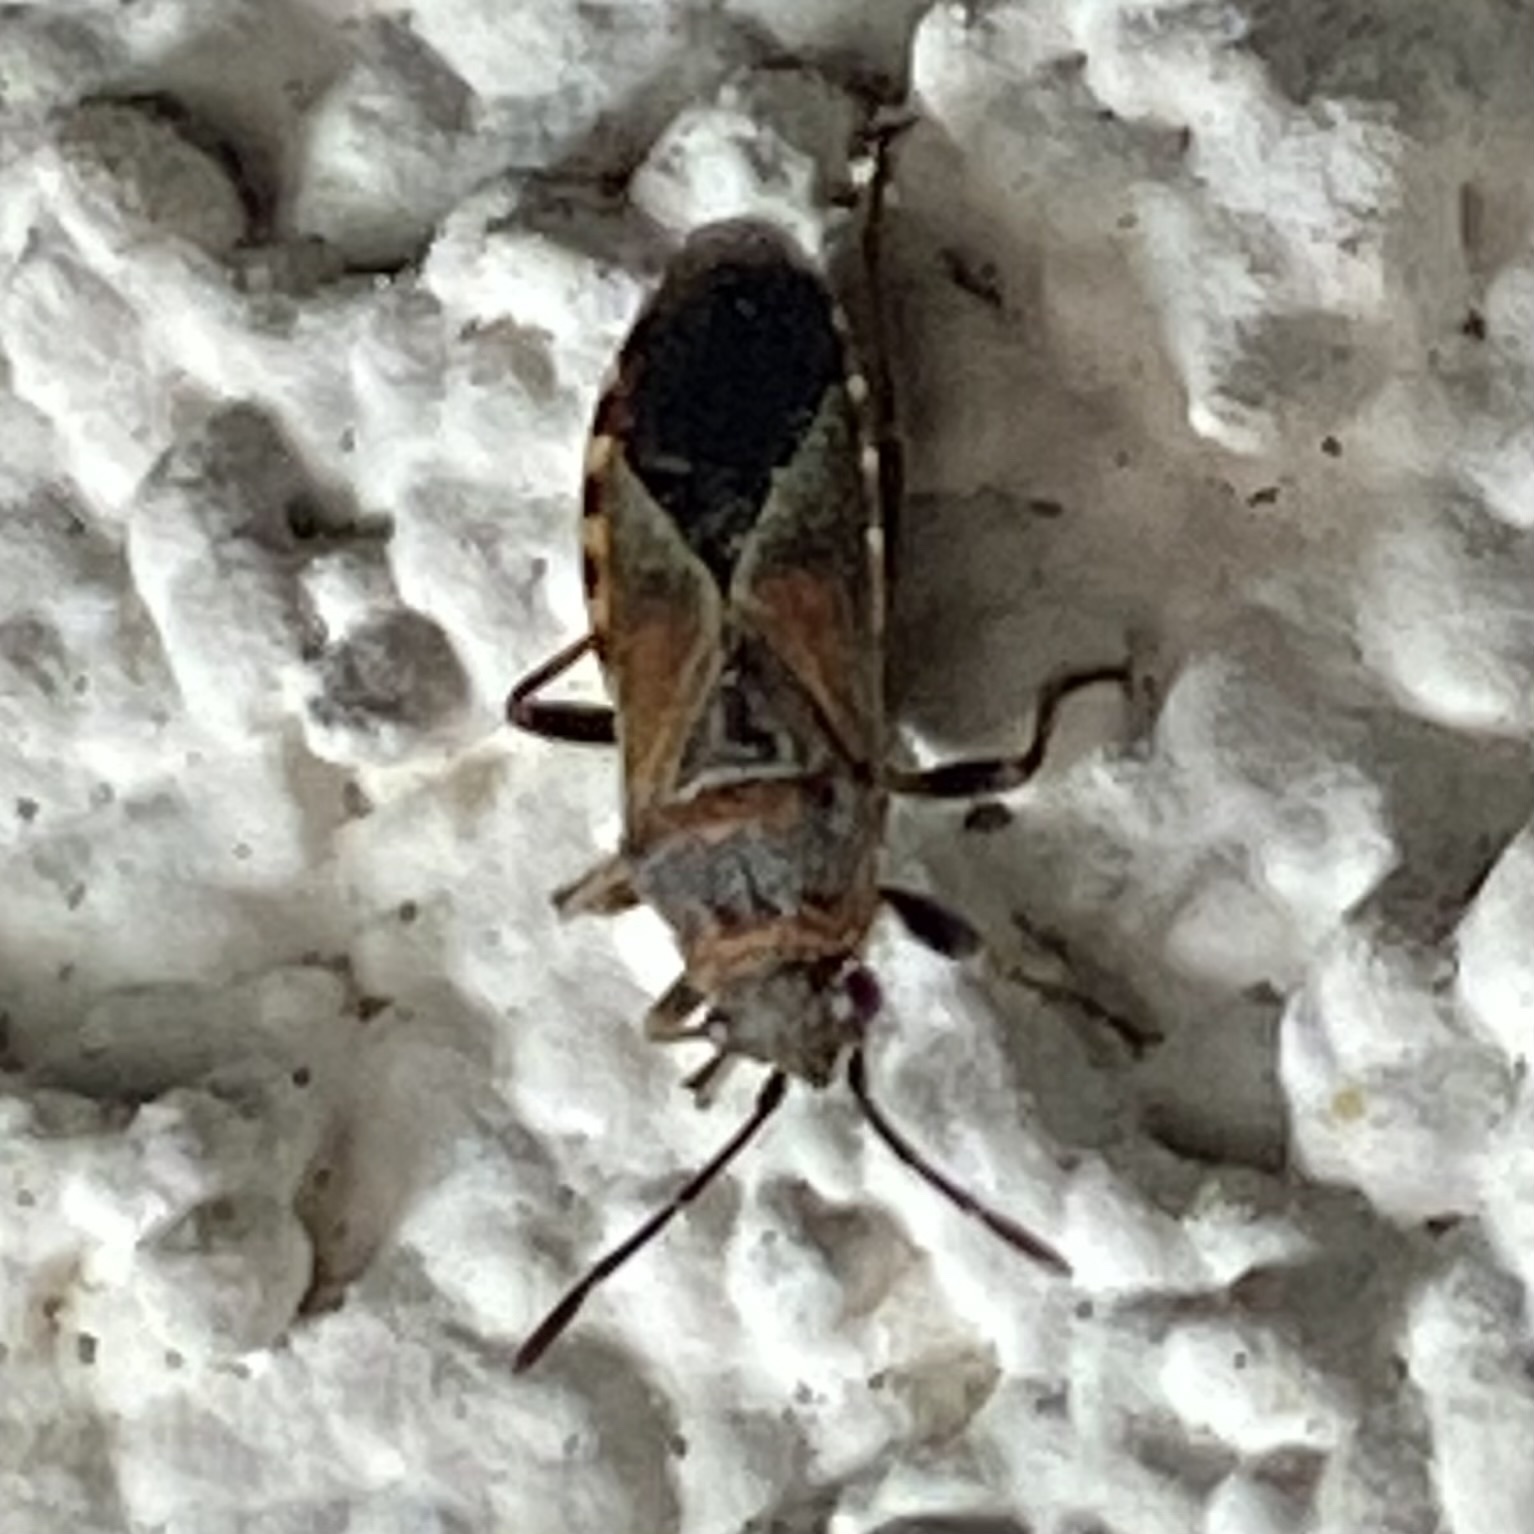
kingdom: Animalia
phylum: Arthropoda
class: Insecta
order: Hemiptera
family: Lygaeidae
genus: Arocatus
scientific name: Arocatus melanocephalus
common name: Lygaeid bug
